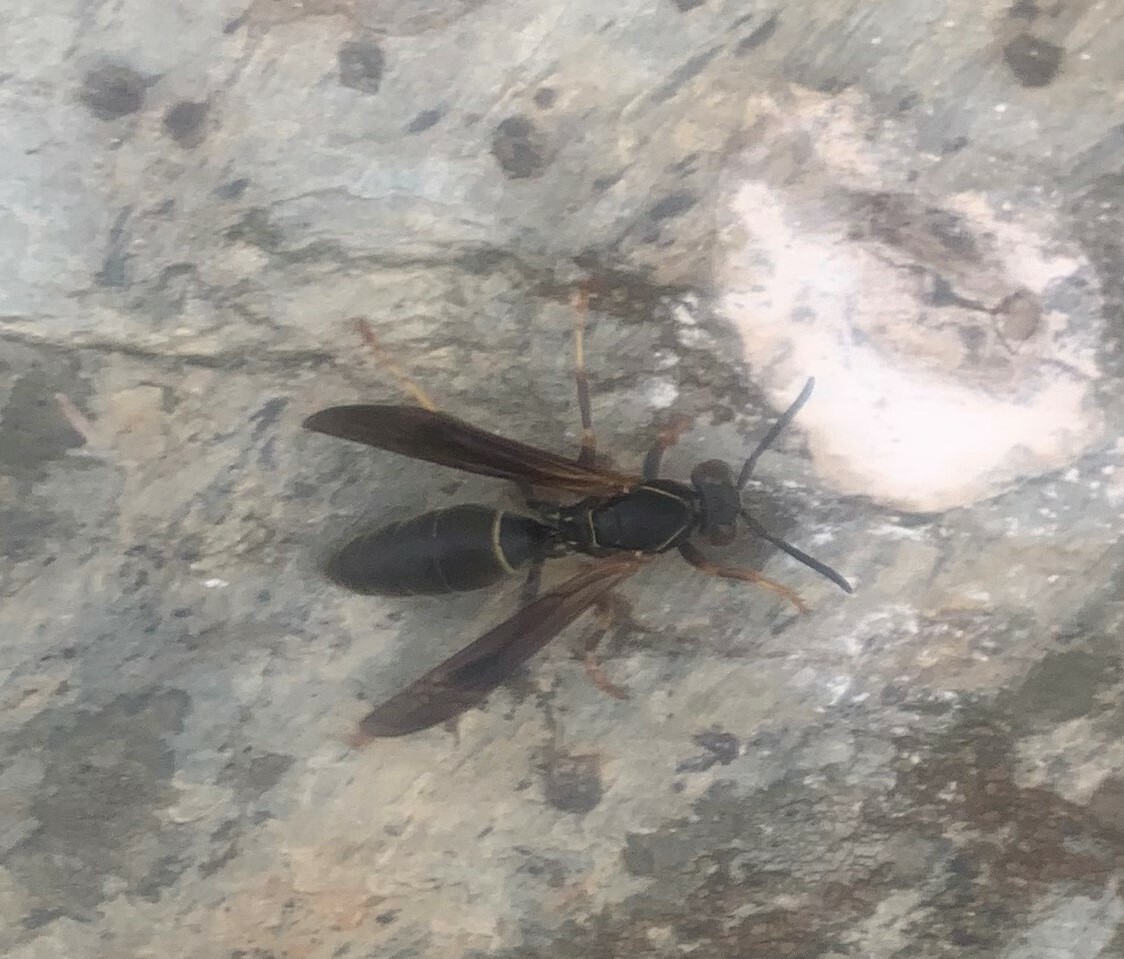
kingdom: Animalia
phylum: Arthropoda
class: Insecta
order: Hymenoptera
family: Eumenidae
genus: Polistes
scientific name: Polistes fuscatus
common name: Dark paper wasp
